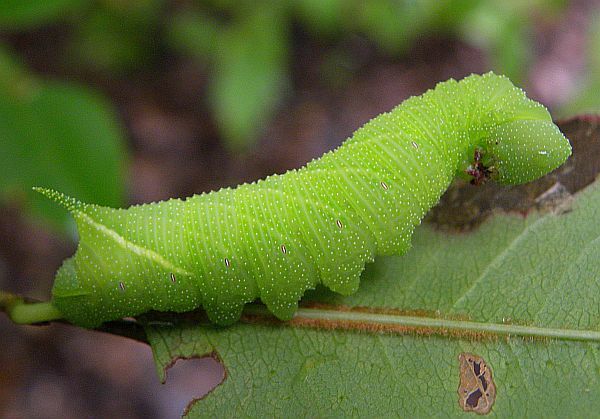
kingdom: Animalia
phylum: Arthropoda
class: Insecta
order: Lepidoptera
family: Sphingidae
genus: Paonias
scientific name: Paonias myops
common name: Small-eyed sphinx
